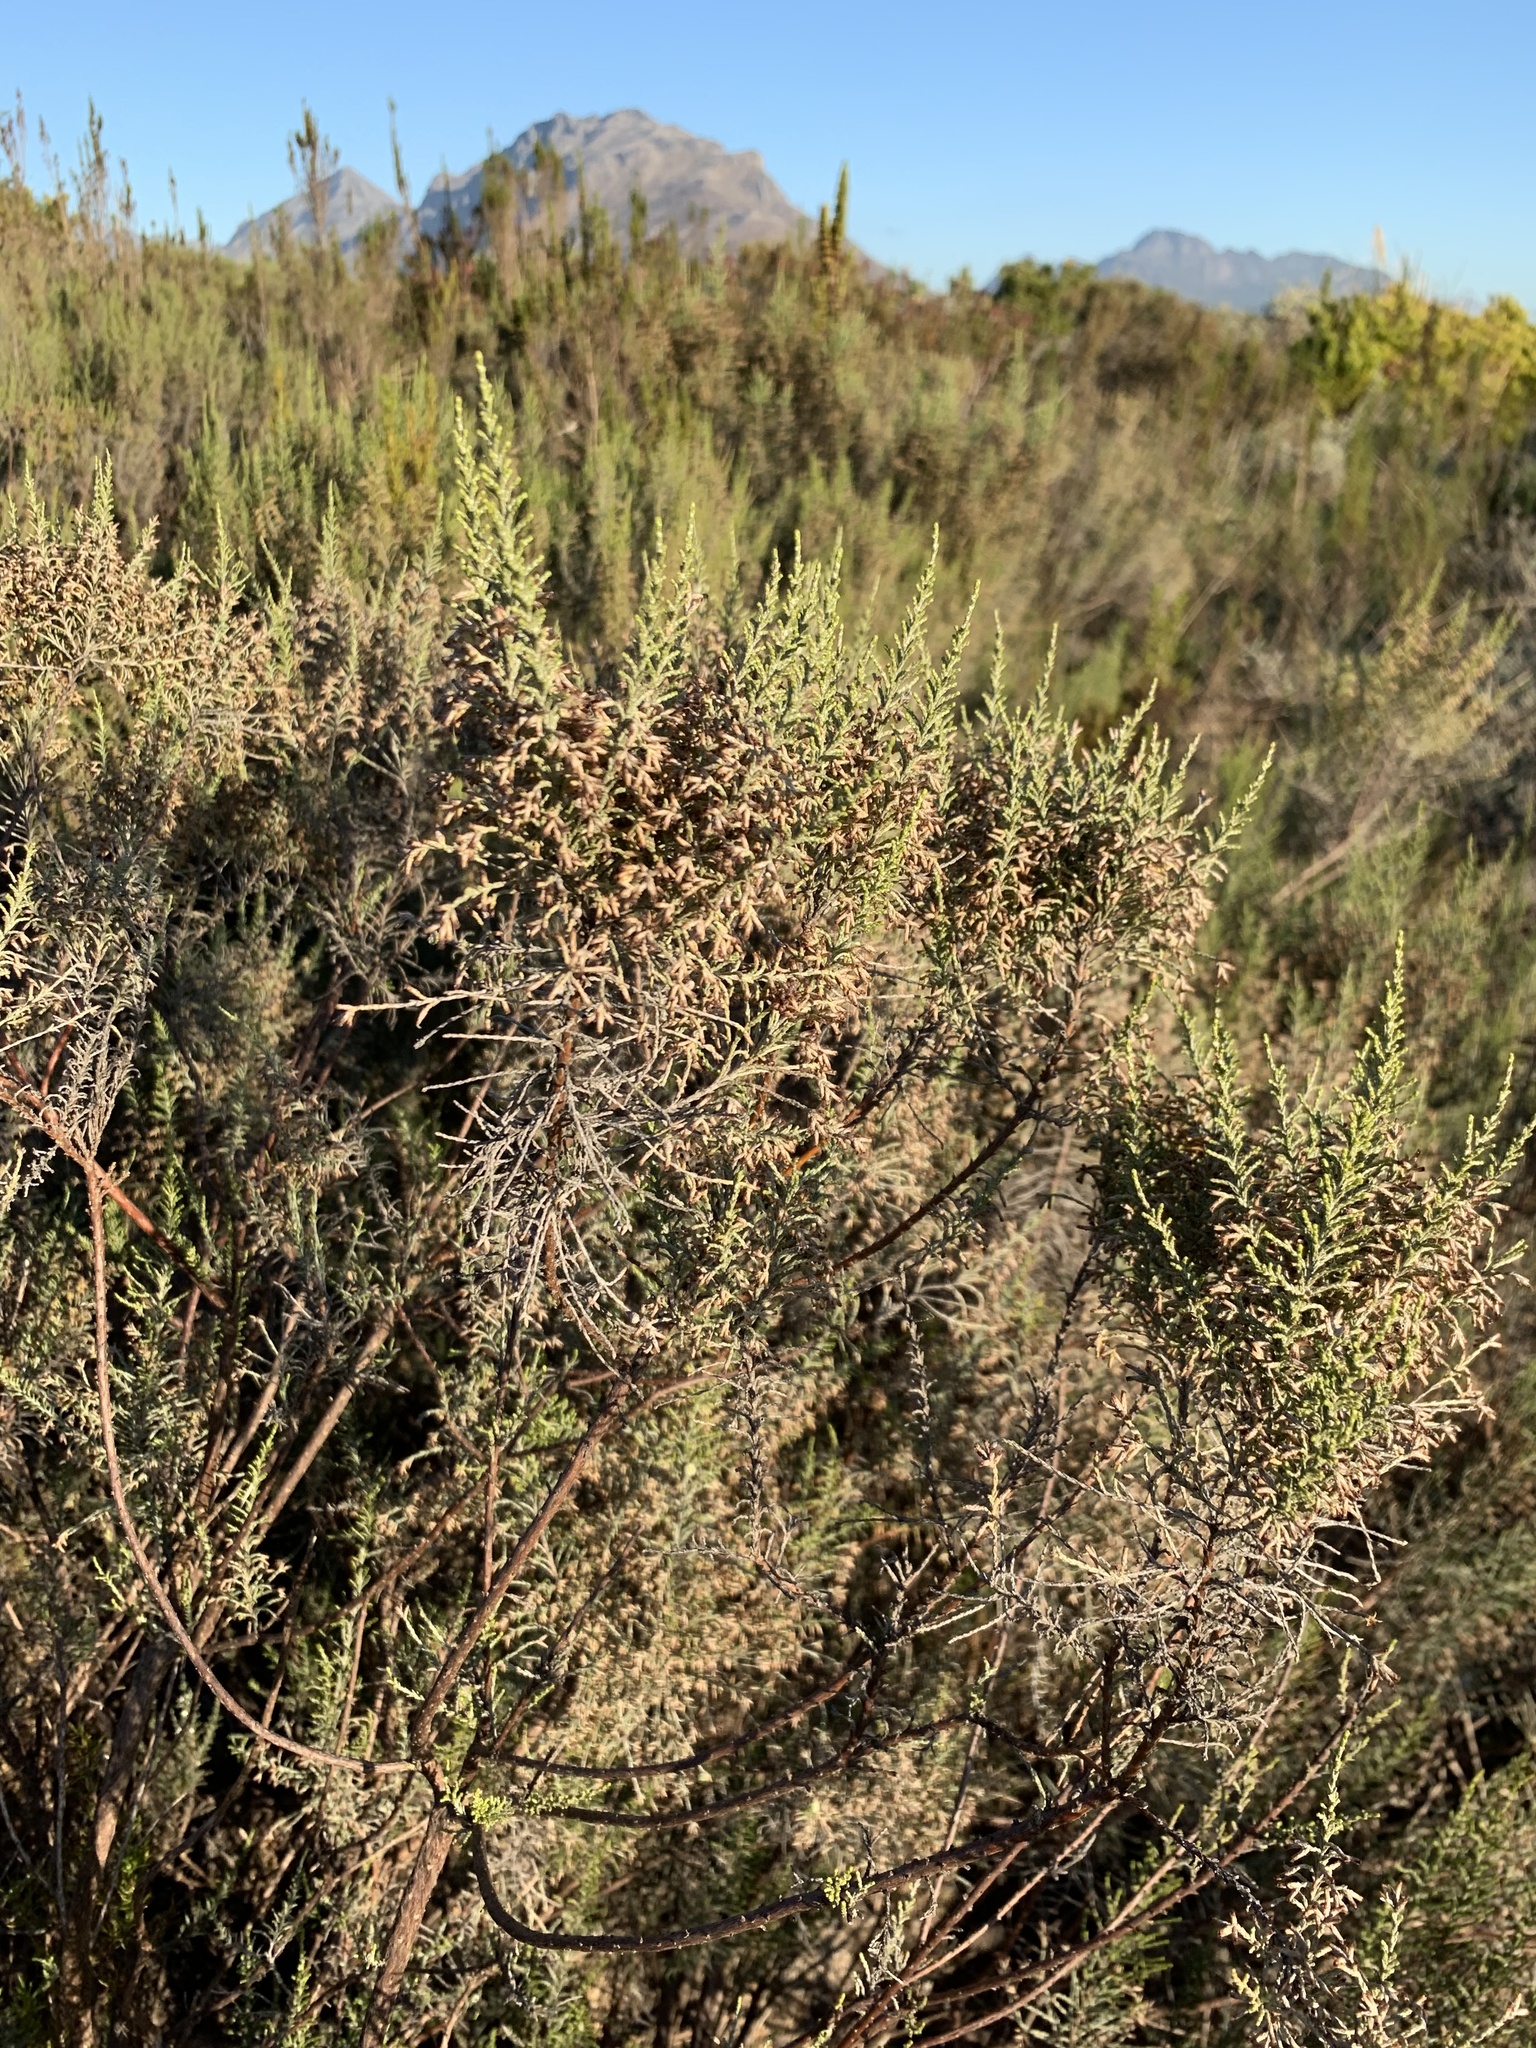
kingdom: Plantae
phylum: Tracheophyta
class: Magnoliopsida
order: Asterales
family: Asteraceae
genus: Dicerothamnus
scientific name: Dicerothamnus rhinocerotis
